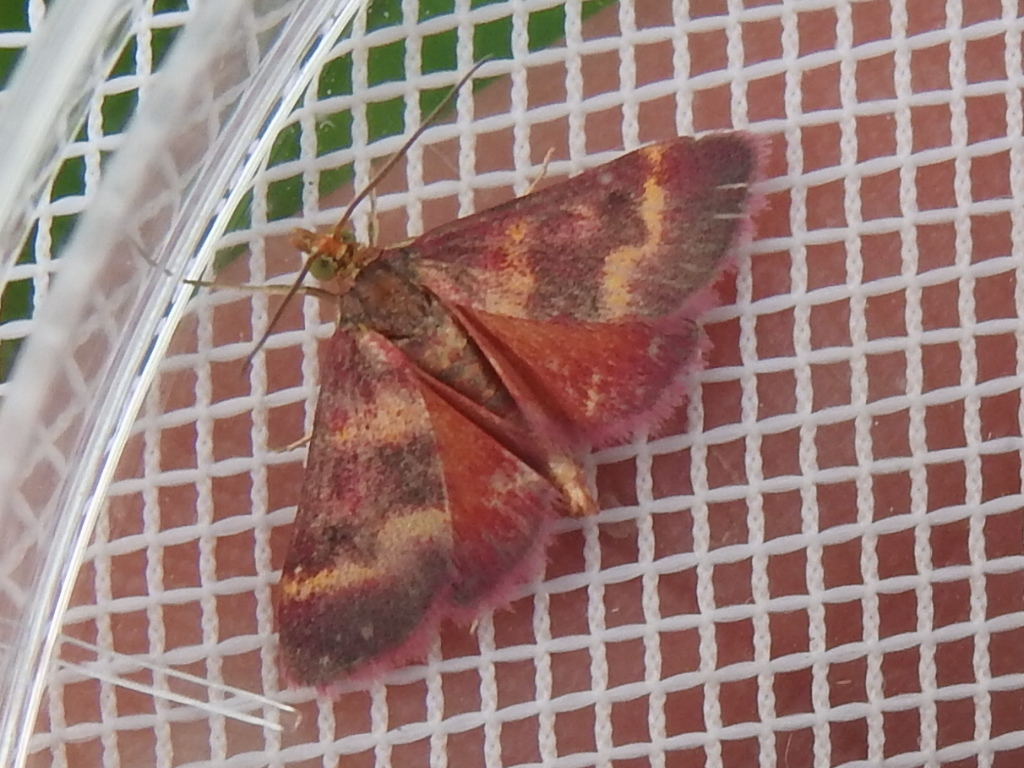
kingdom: Animalia
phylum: Arthropoda
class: Insecta
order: Lepidoptera
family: Crambidae
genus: Pyrausta
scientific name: Pyrausta tyralis
